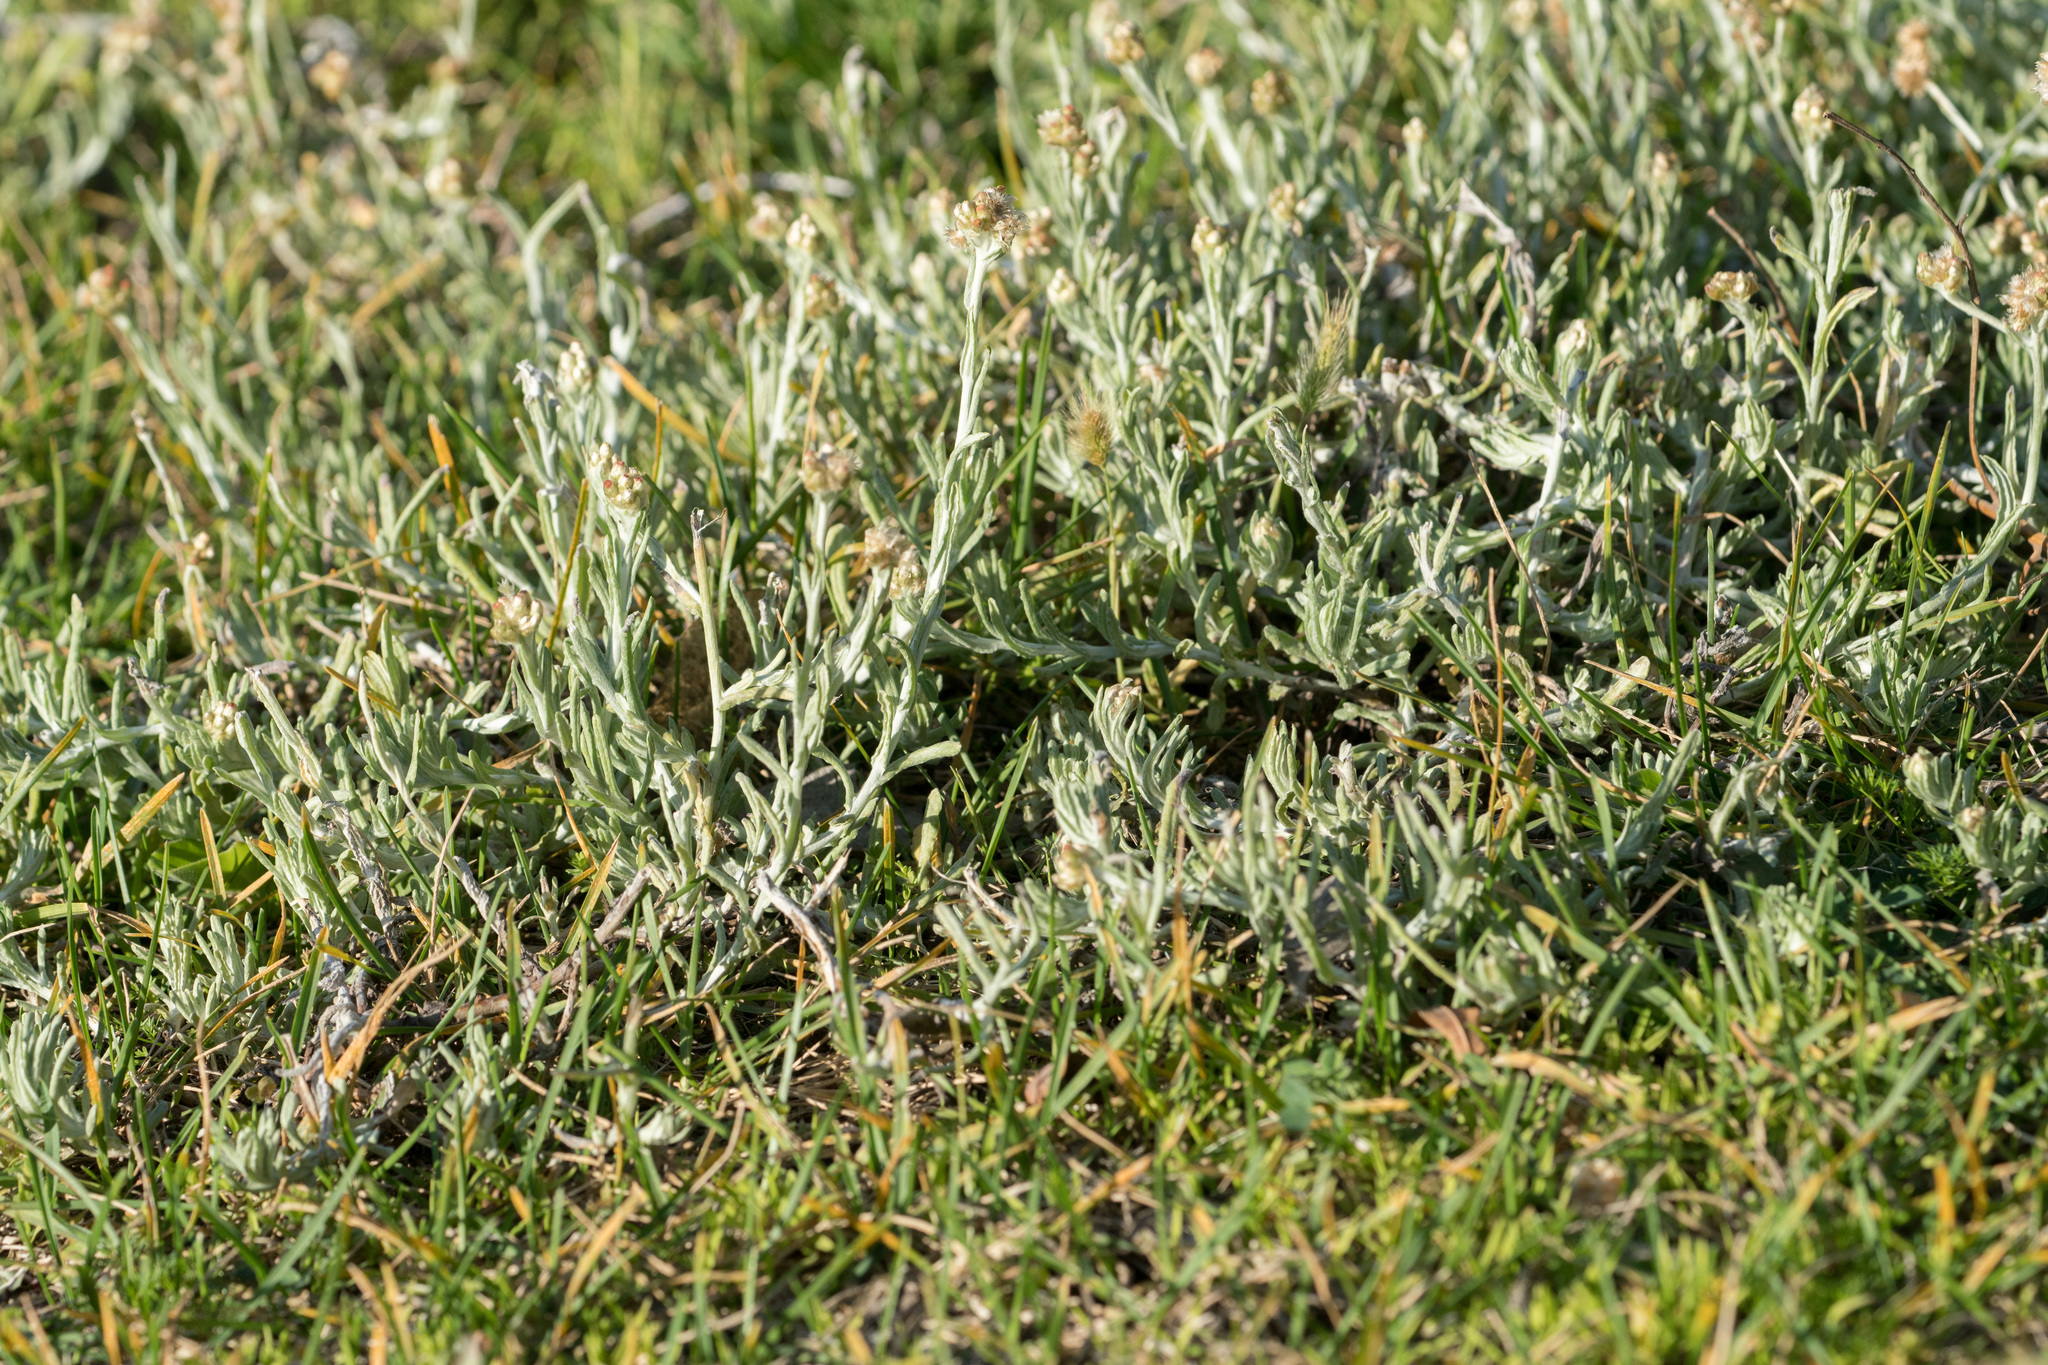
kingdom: Plantae
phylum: Tracheophyta
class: Magnoliopsida
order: Asterales
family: Asteraceae
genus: Helichrysum
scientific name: Helichrysum luteoalbum
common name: Daisy
